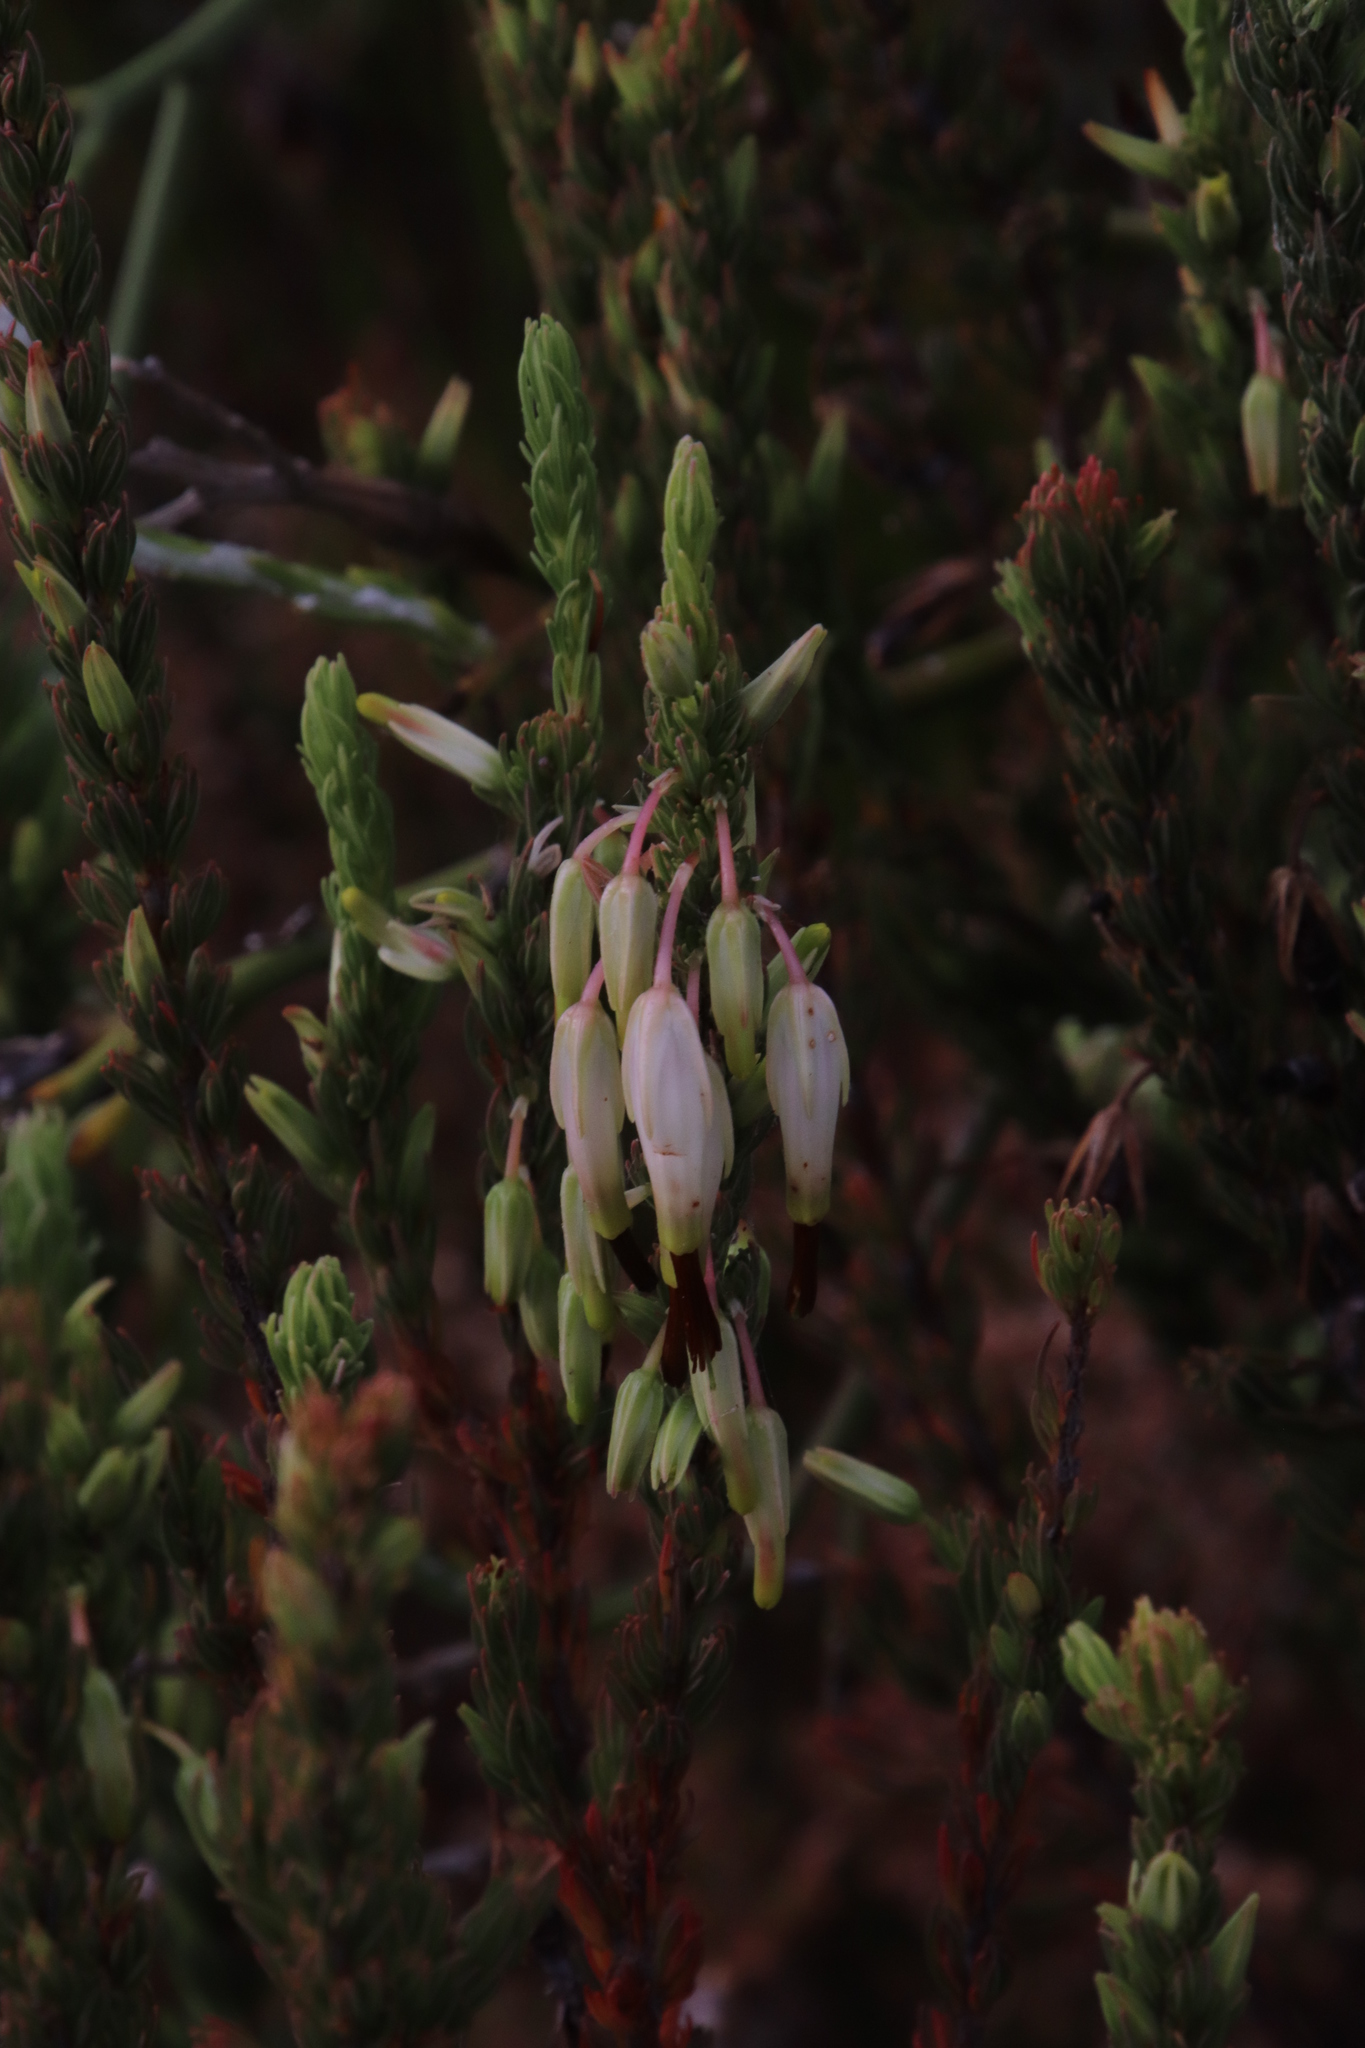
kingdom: Plantae
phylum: Tracheophyta
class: Magnoliopsida
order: Ericales
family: Ericaceae
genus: Erica
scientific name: Erica plukenetii
